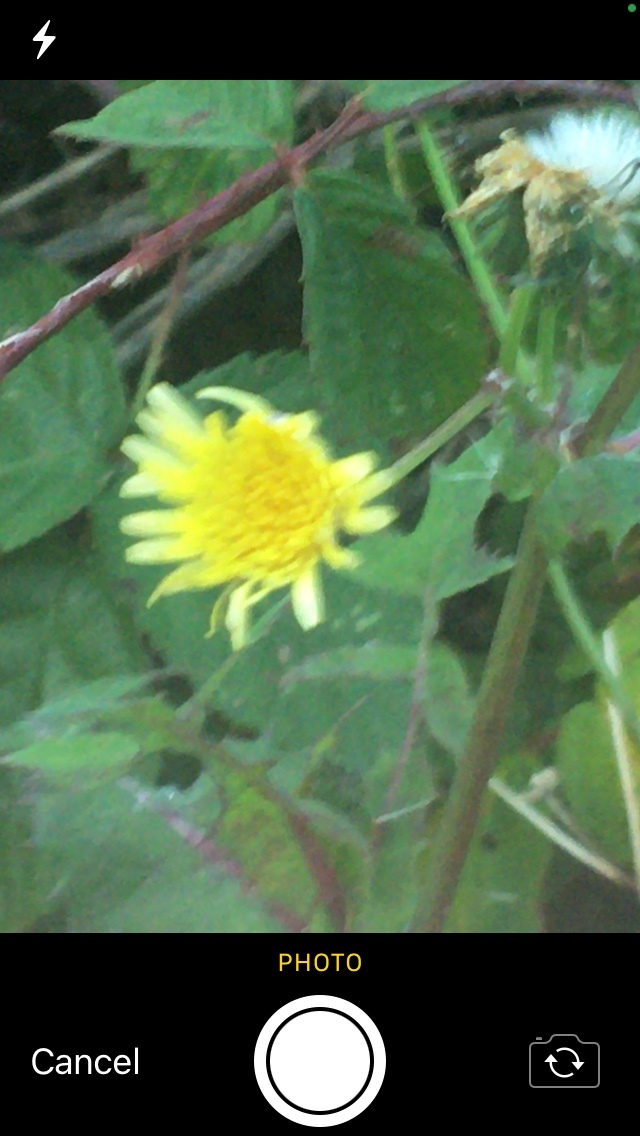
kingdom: Plantae
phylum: Tracheophyta
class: Magnoliopsida
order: Asterales
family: Asteraceae
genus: Sonchus
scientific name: Sonchus oleraceus
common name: Common sowthistle
